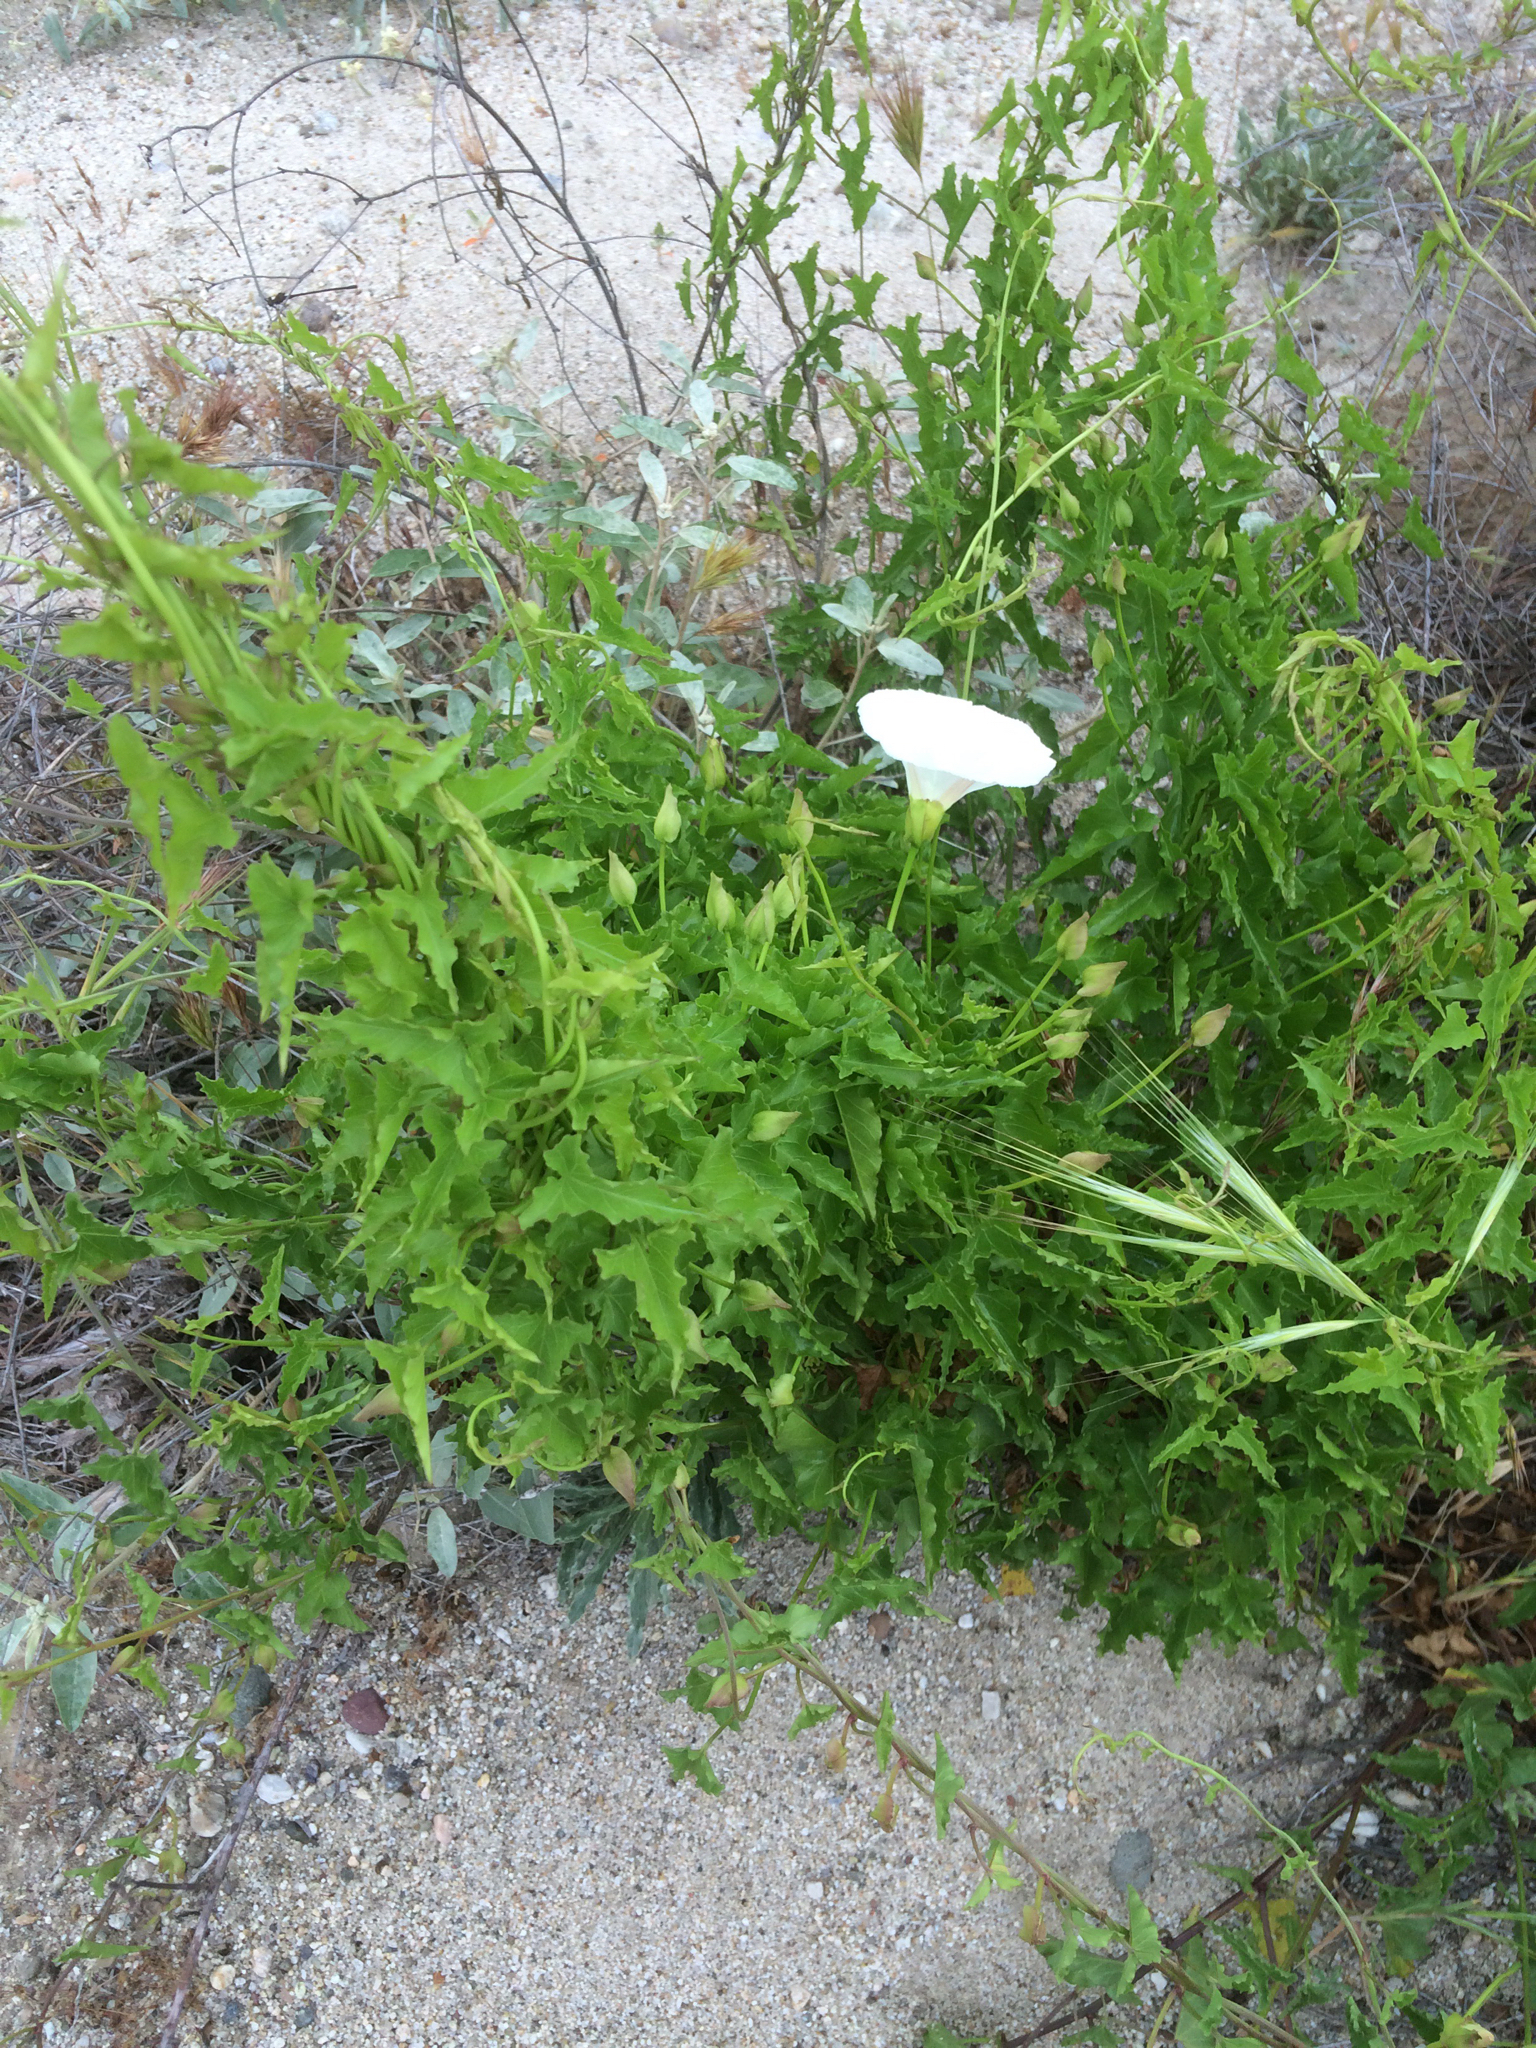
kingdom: Plantae
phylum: Tracheophyta
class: Magnoliopsida
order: Solanales
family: Convolvulaceae
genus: Calystegia
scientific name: Calystegia macrostegia
